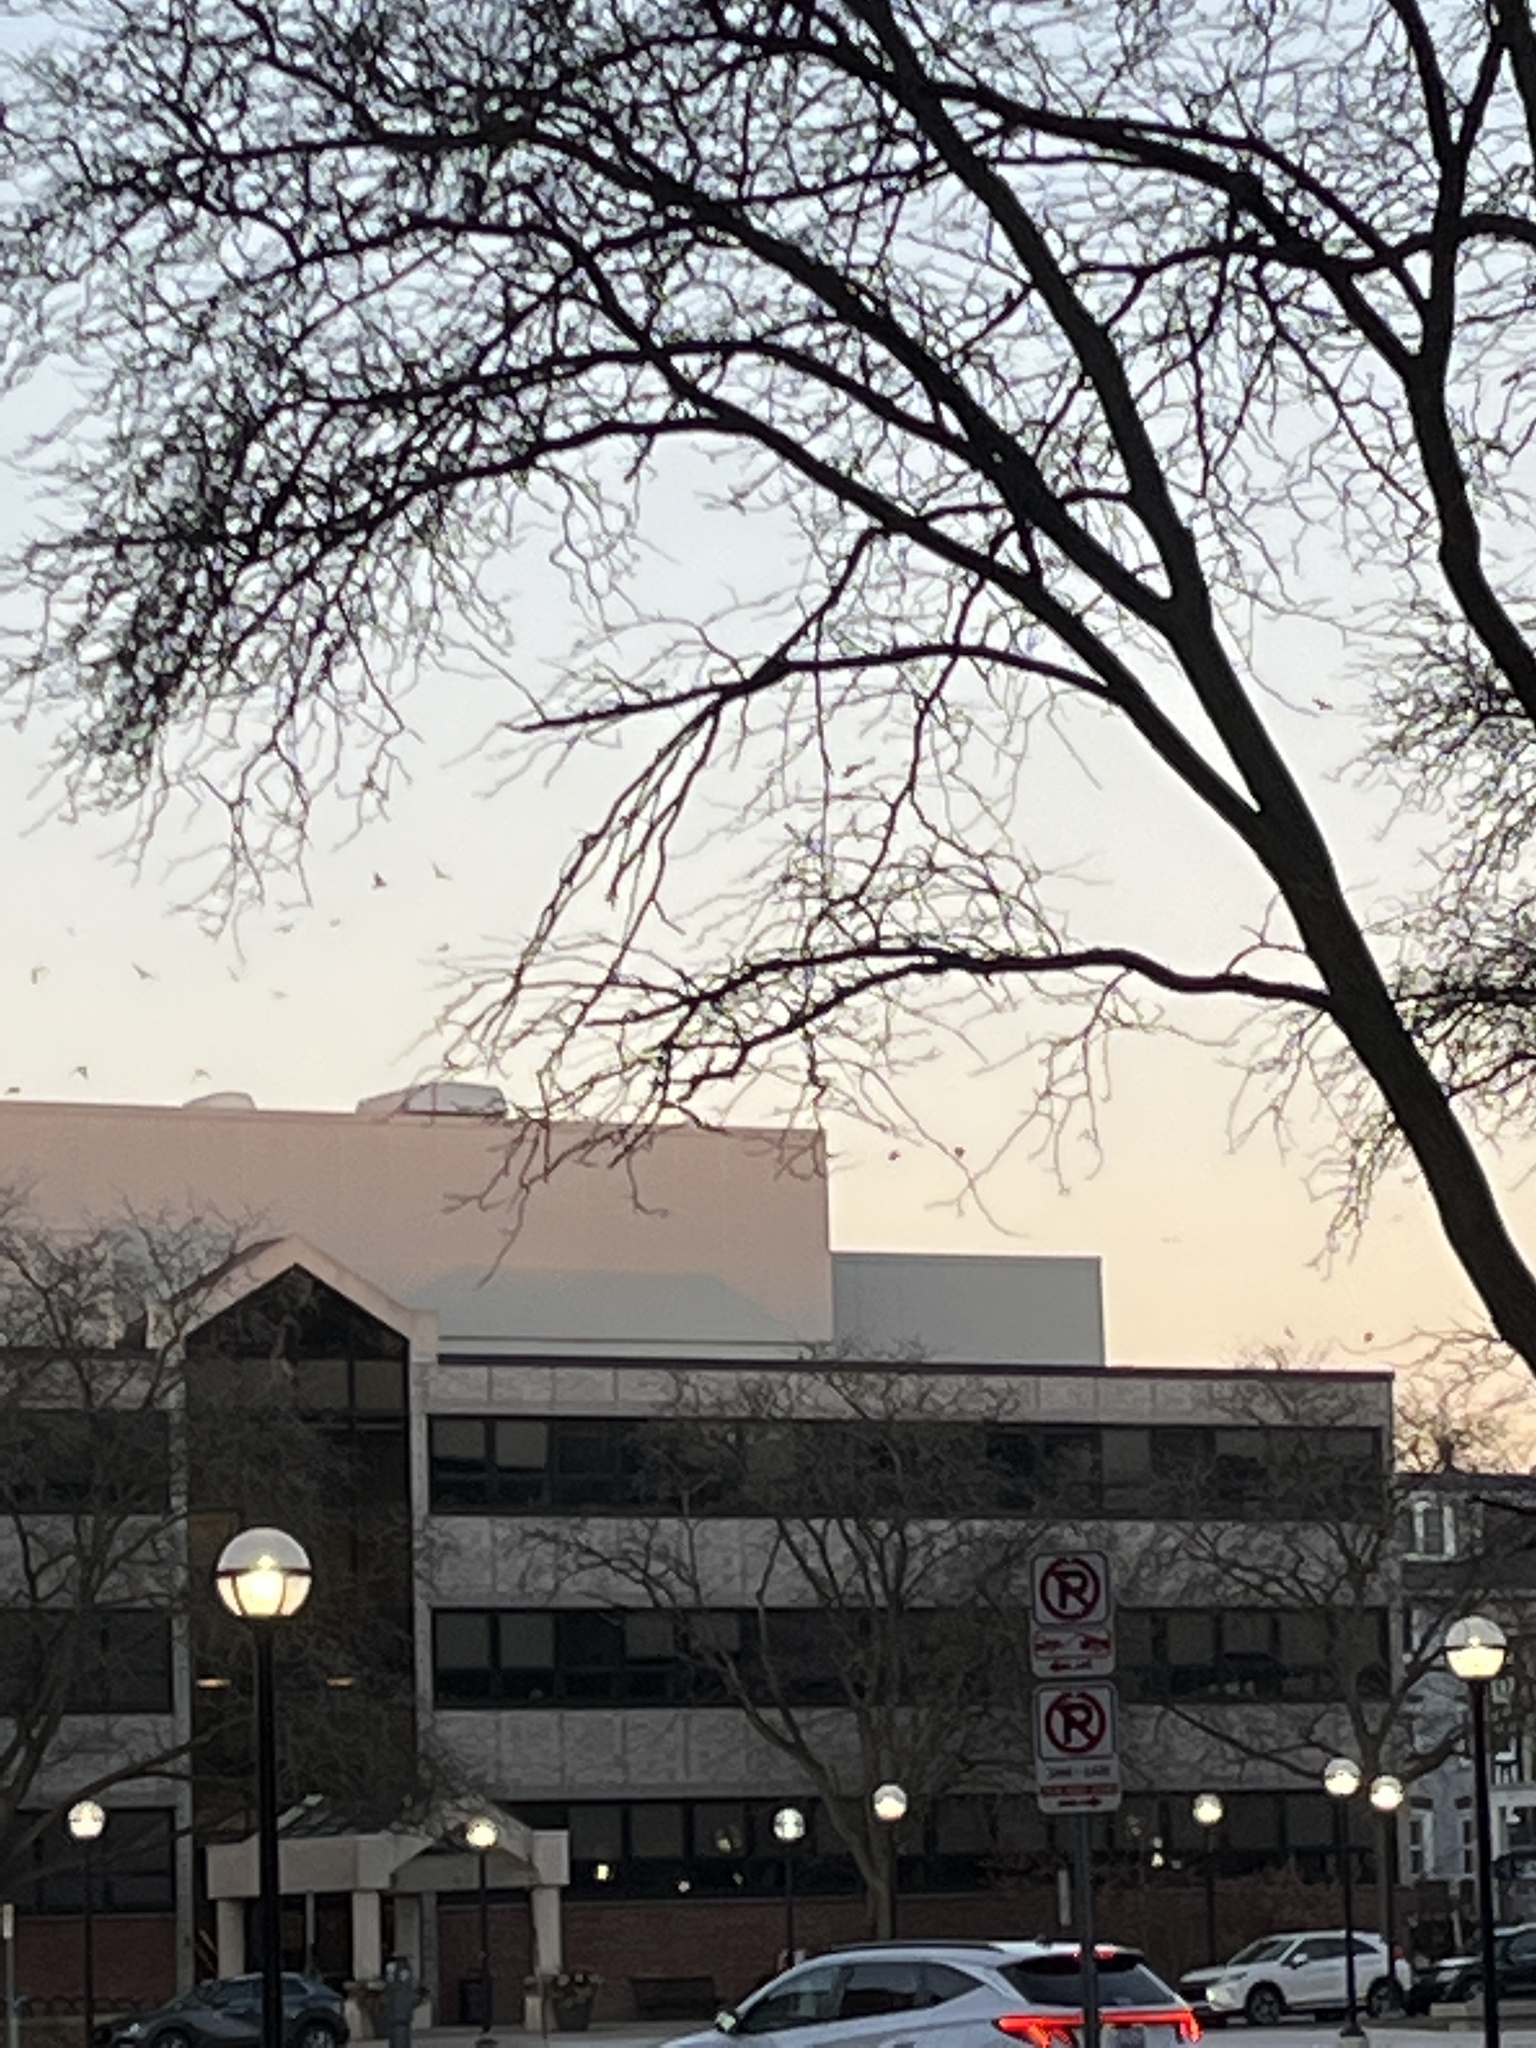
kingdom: Animalia
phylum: Chordata
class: Aves
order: Passeriformes
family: Corvidae
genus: Corvus
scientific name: Corvus brachyrhynchos
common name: American crow
